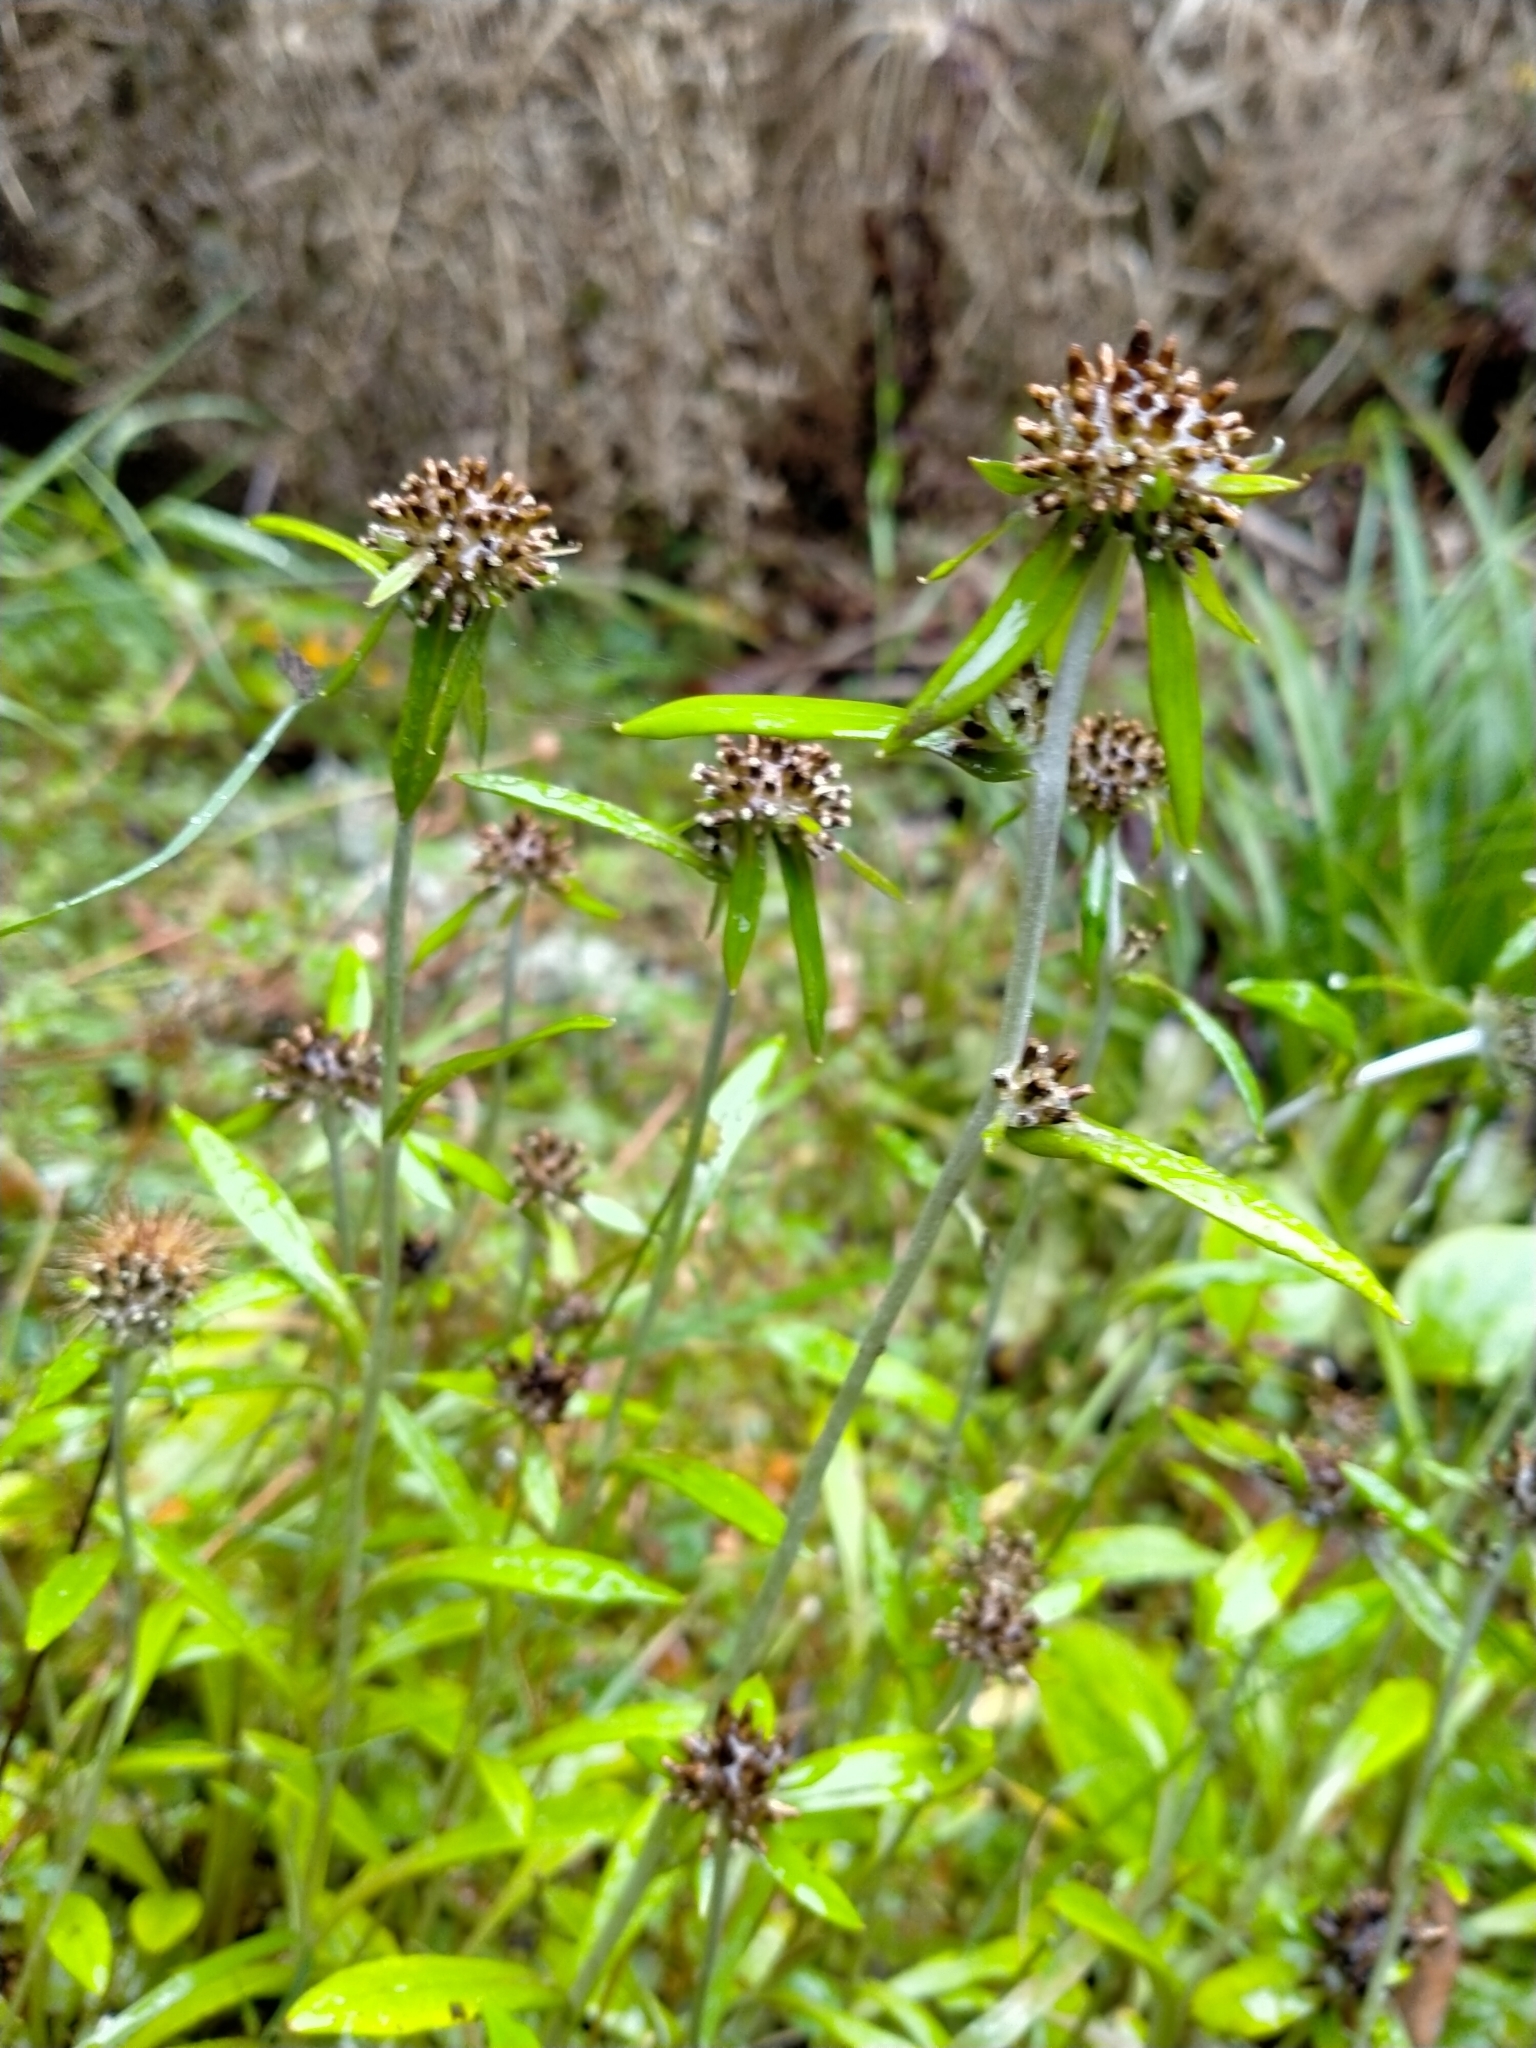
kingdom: Plantae
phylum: Tracheophyta
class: Magnoliopsida
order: Asterales
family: Asteraceae
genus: Euchiton
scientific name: Euchiton sphaericus
